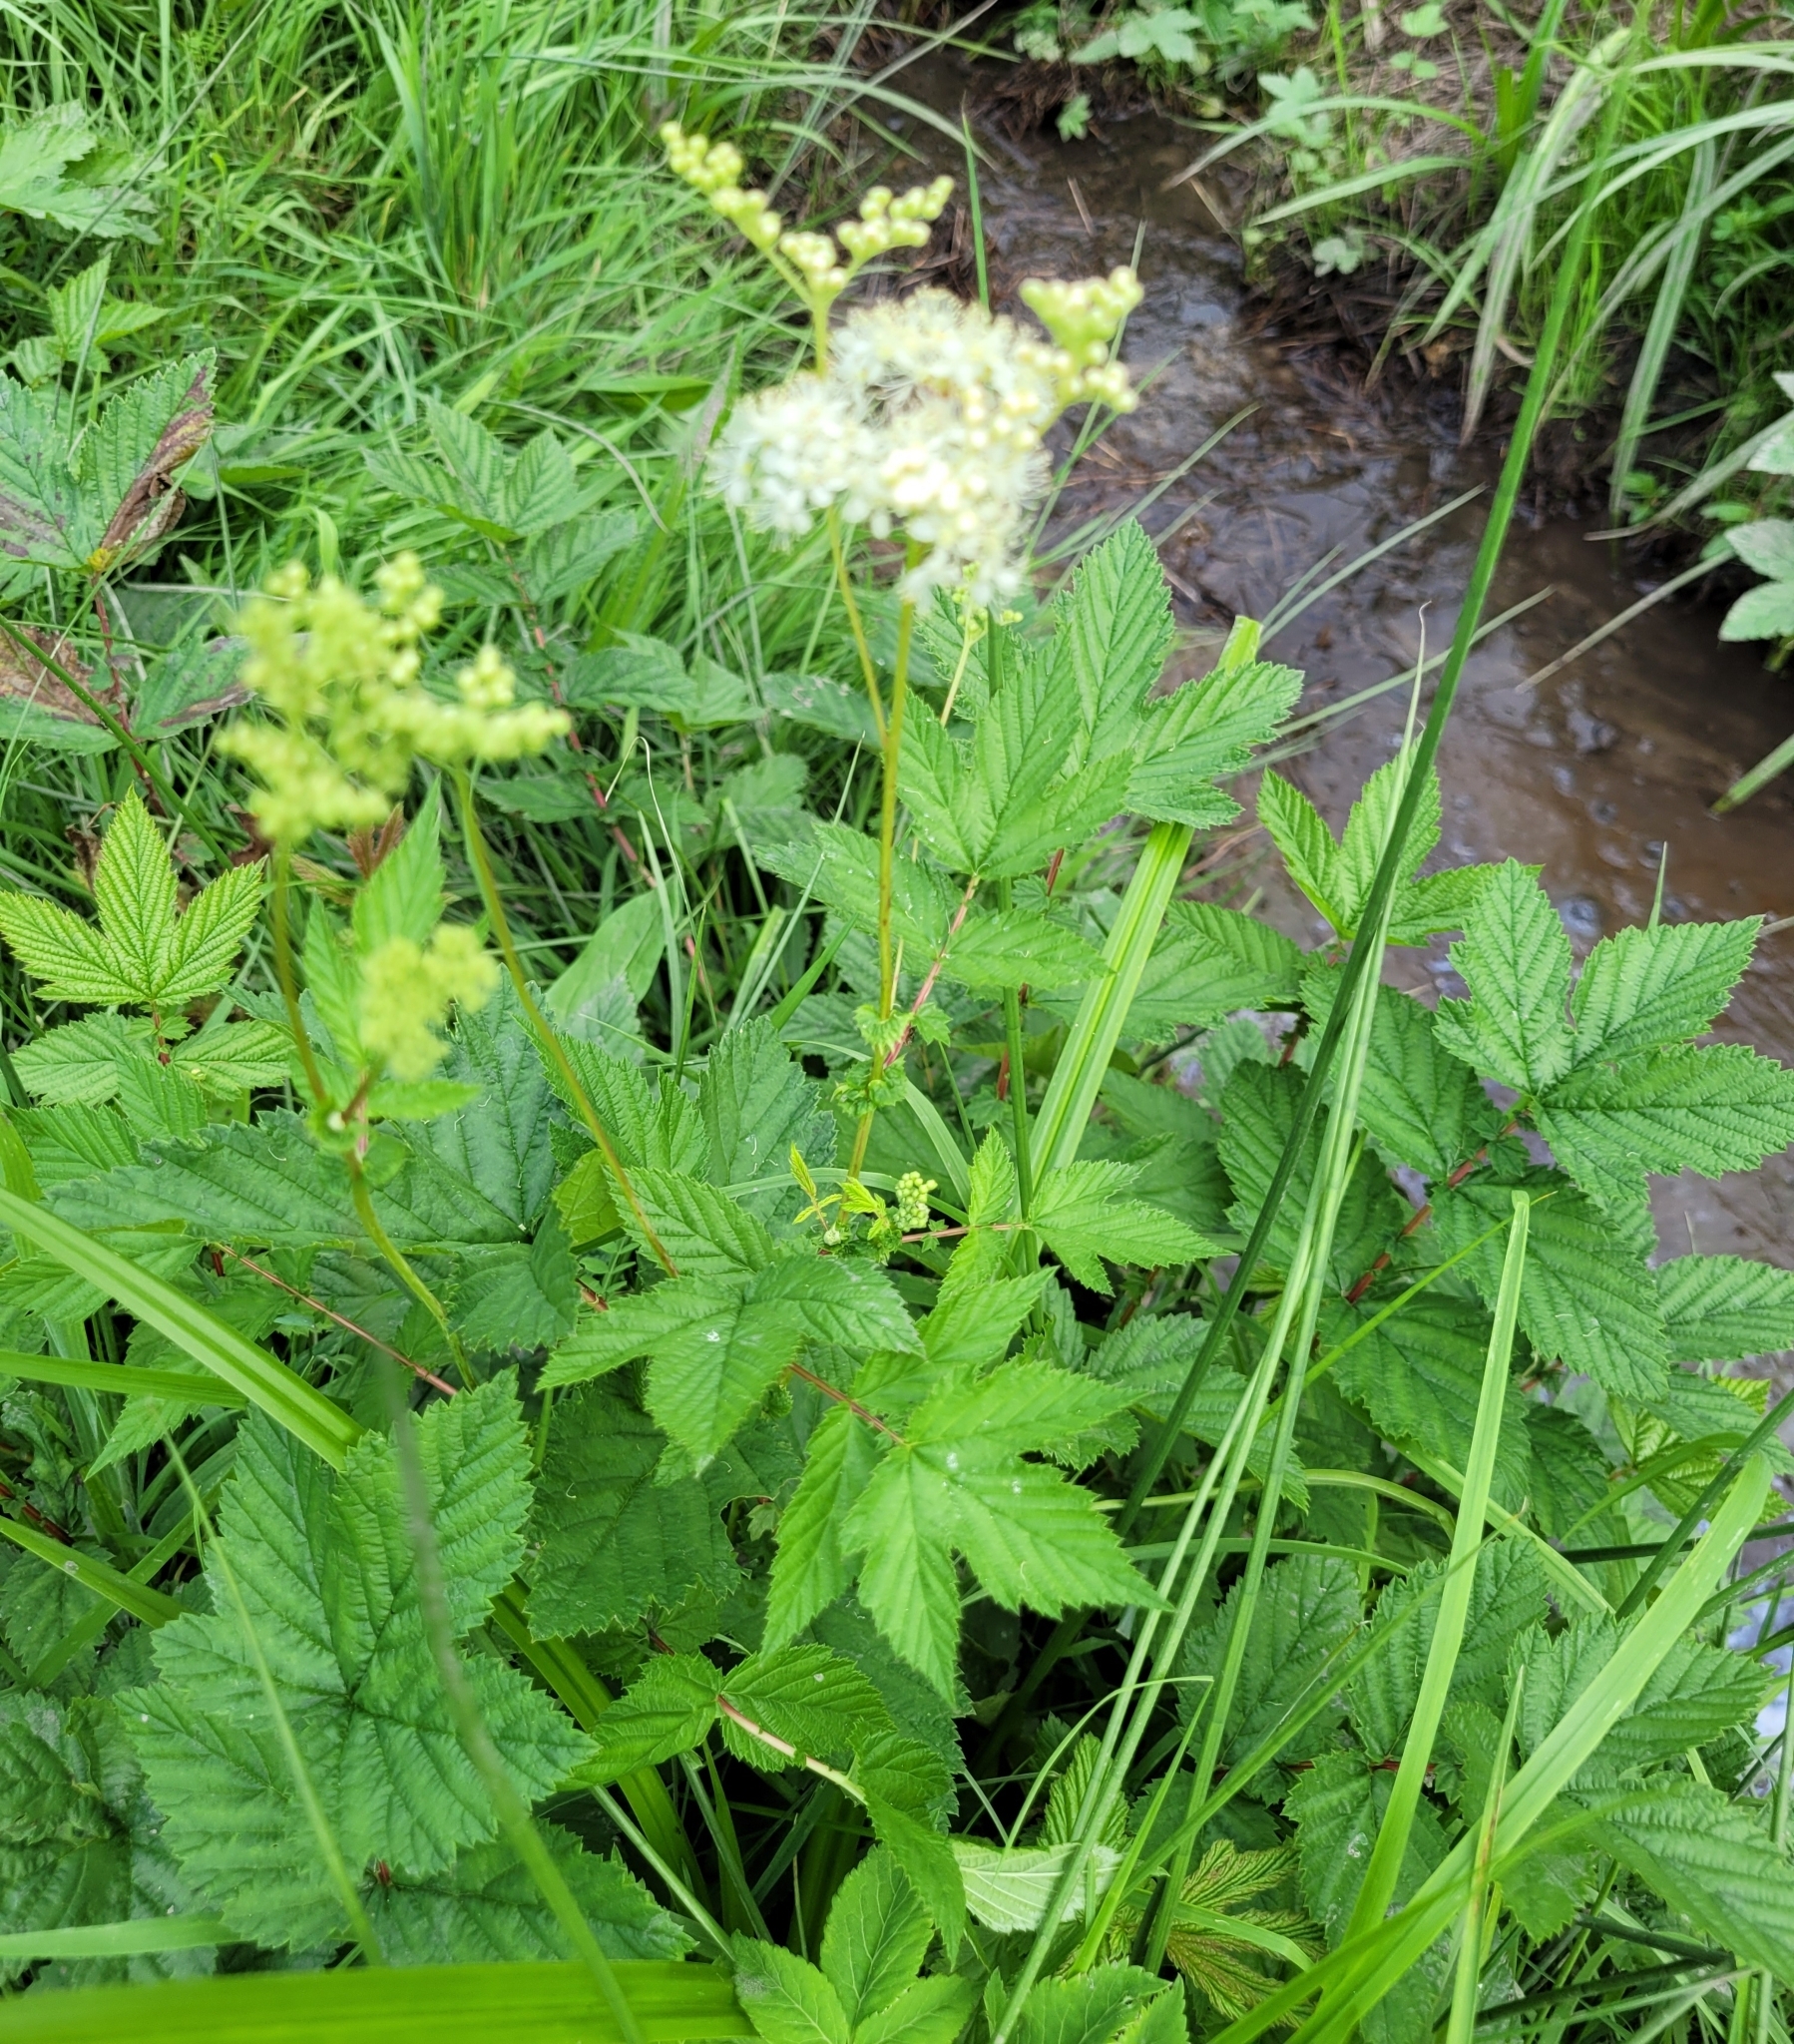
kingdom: Plantae
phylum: Tracheophyta
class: Magnoliopsida
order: Rosales
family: Rosaceae
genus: Filipendula
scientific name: Filipendula ulmaria
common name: Meadowsweet
